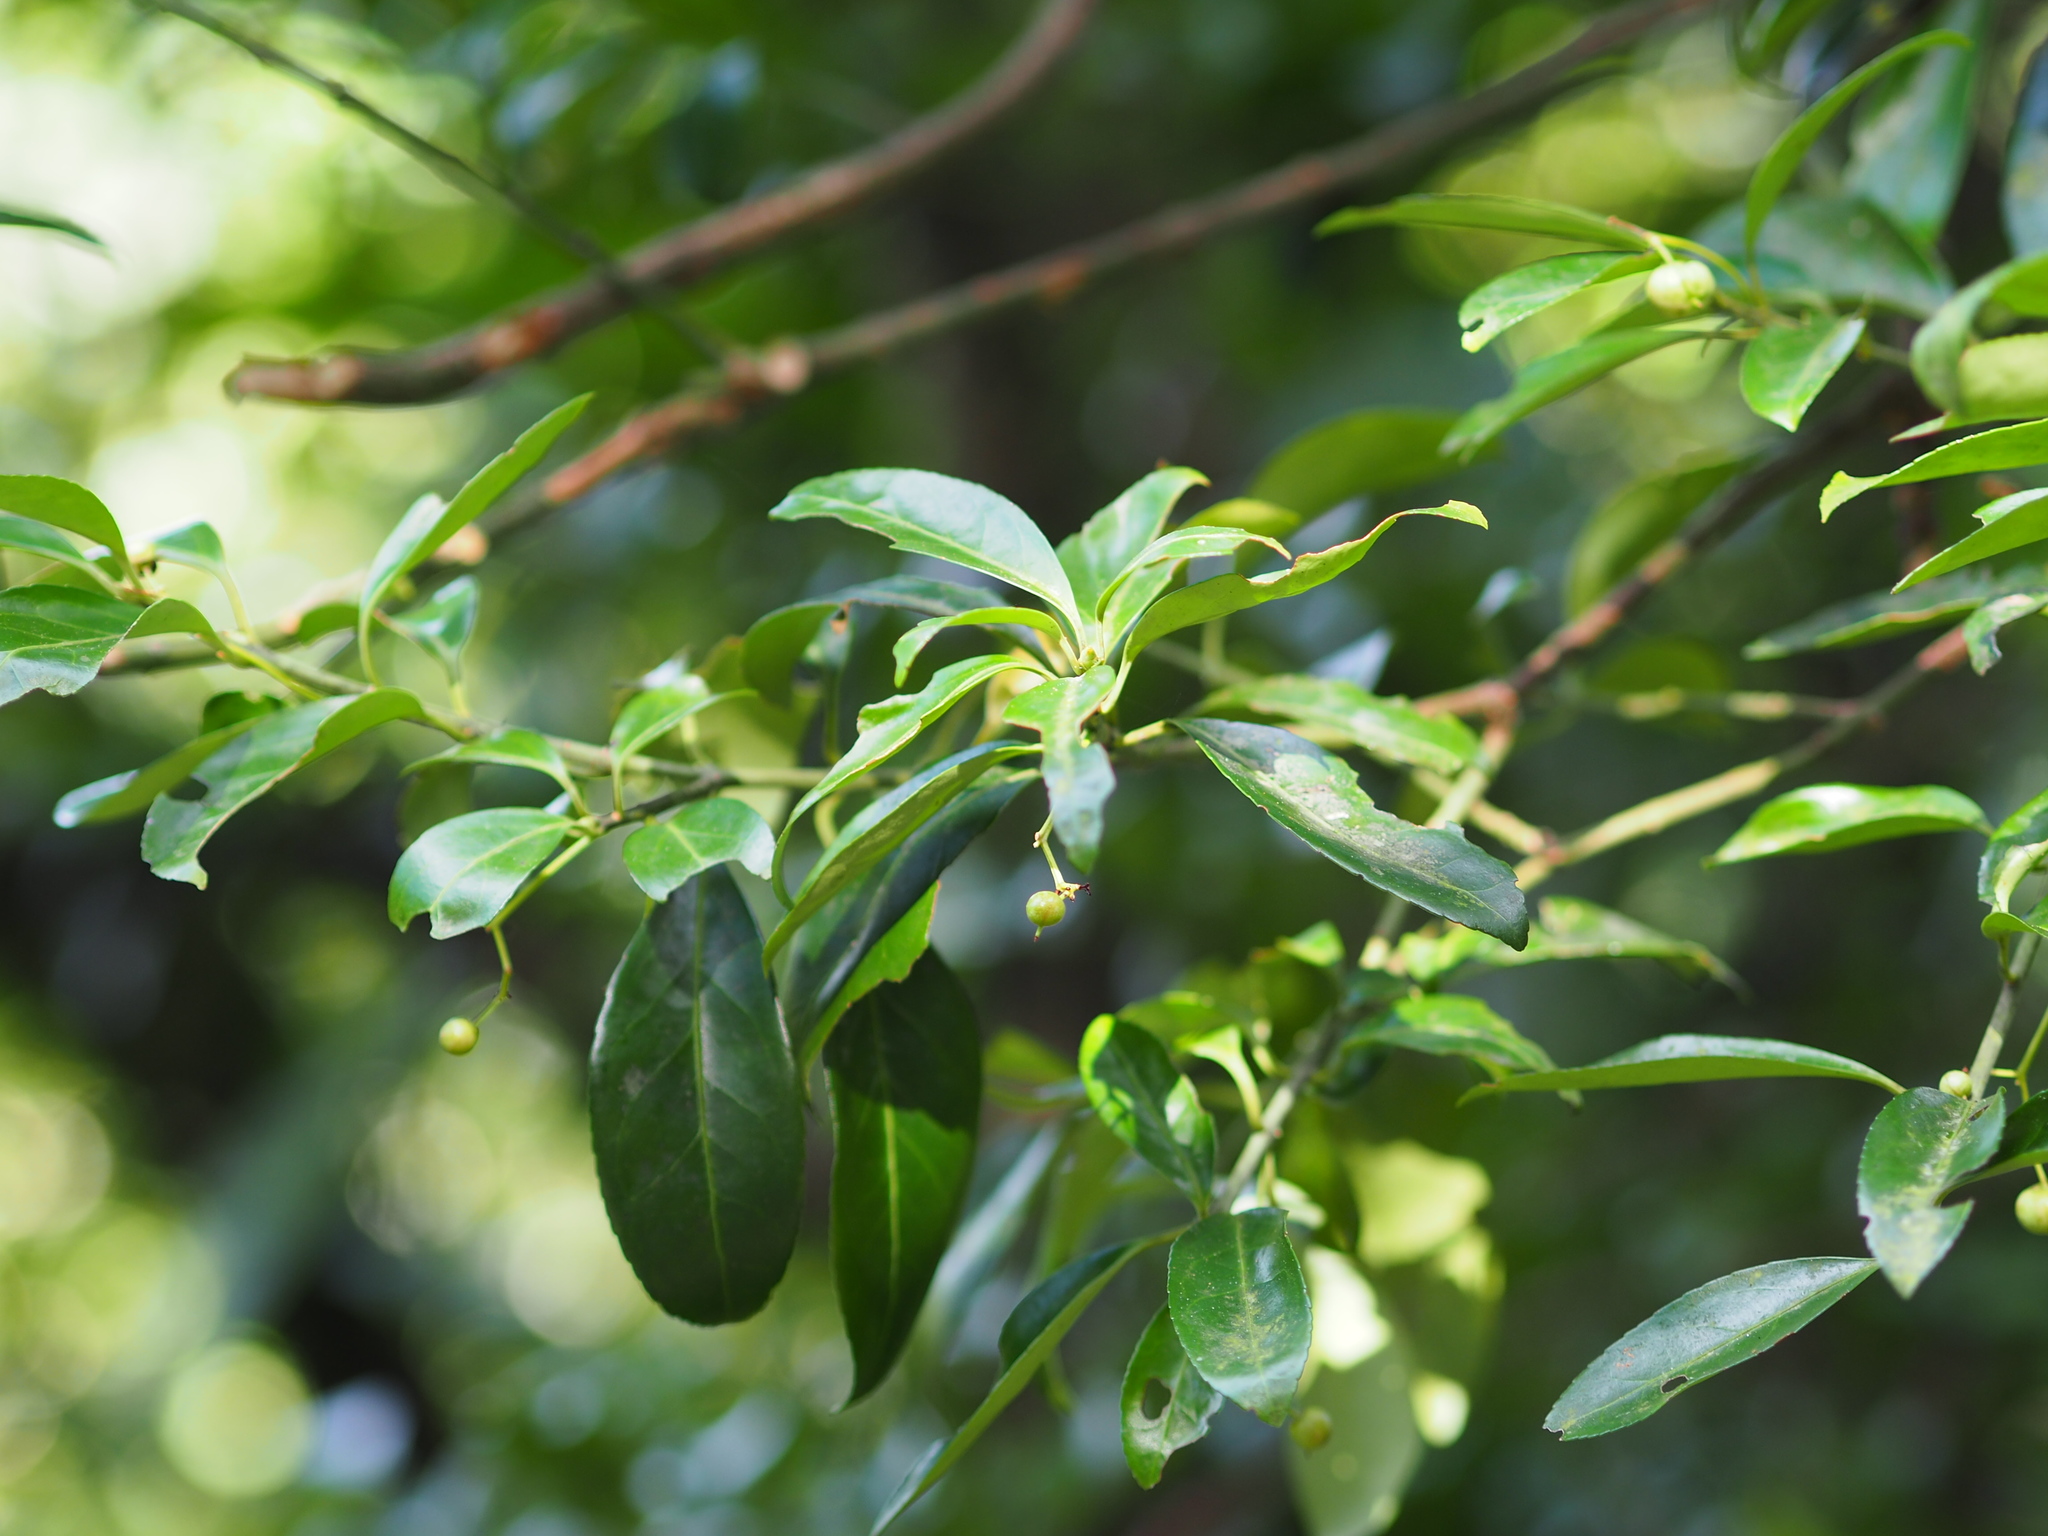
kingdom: Plantae
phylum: Tracheophyta
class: Magnoliopsida
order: Celastrales
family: Celastraceae
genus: Euonymus
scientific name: Euonymus spraguei
